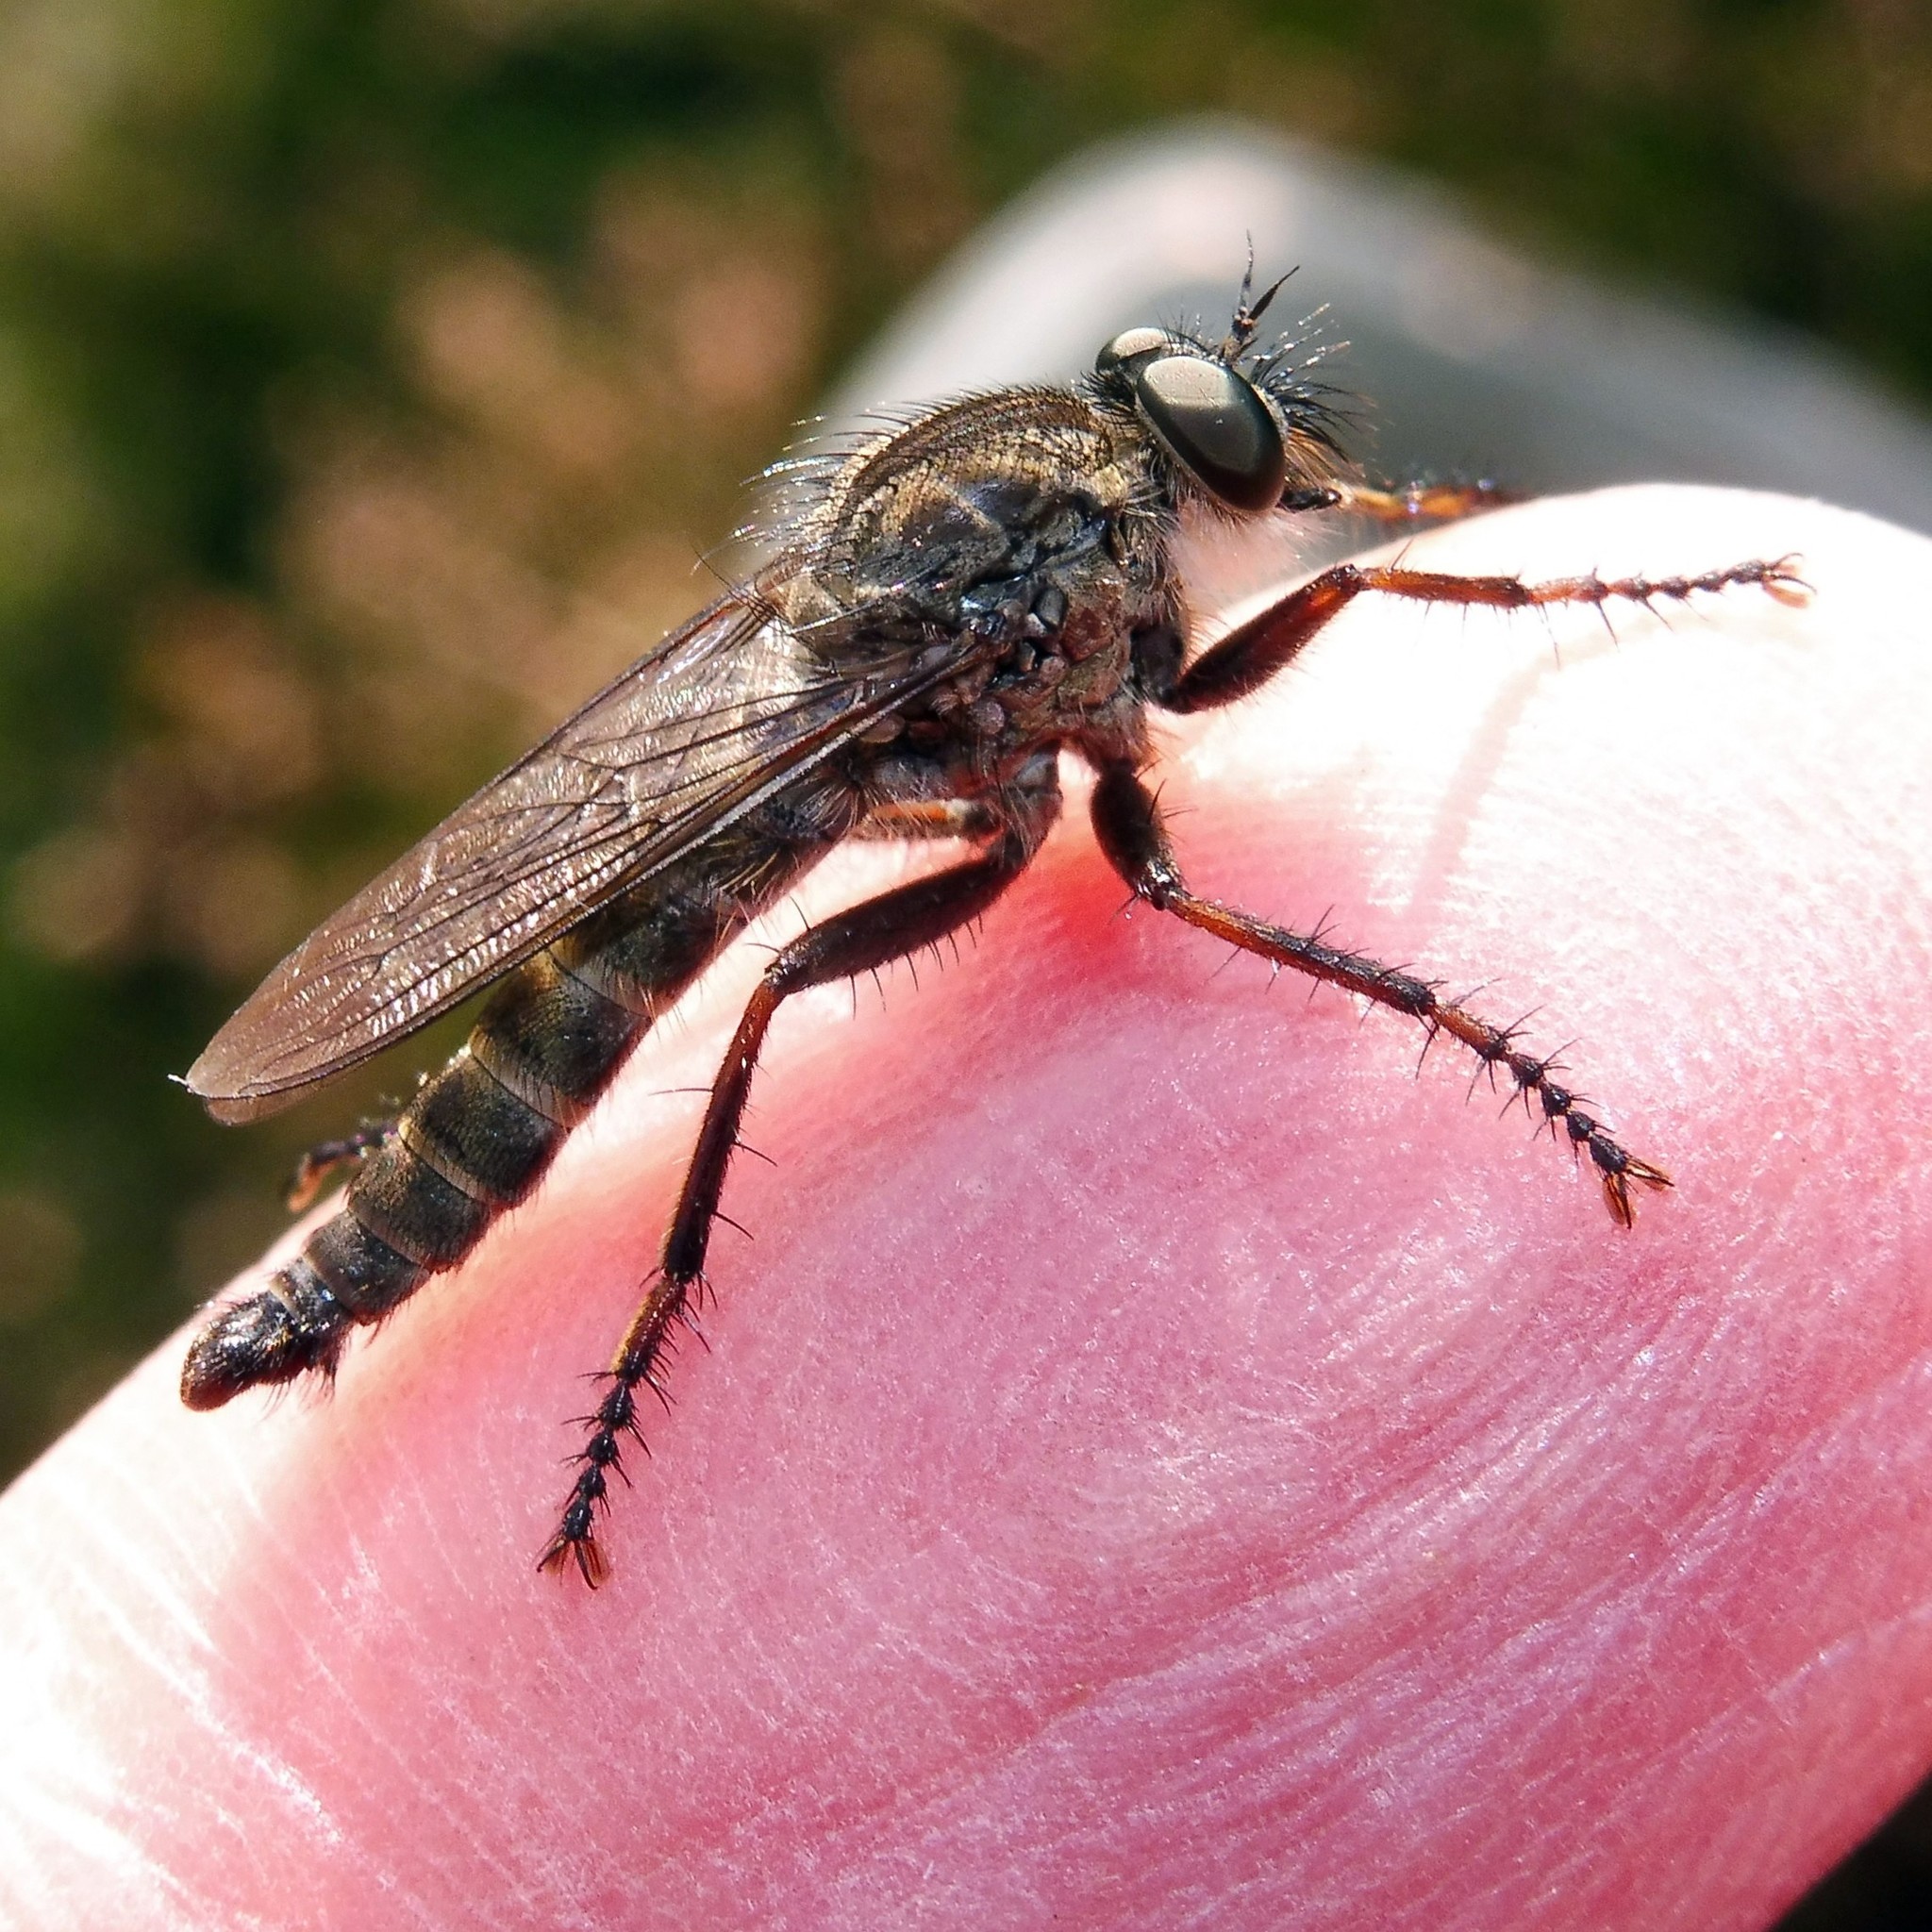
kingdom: Animalia
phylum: Arthropoda
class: Insecta
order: Diptera
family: Asilidae
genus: Machimus
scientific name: Machimus atricapillus
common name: Kite-tailed robberfly
